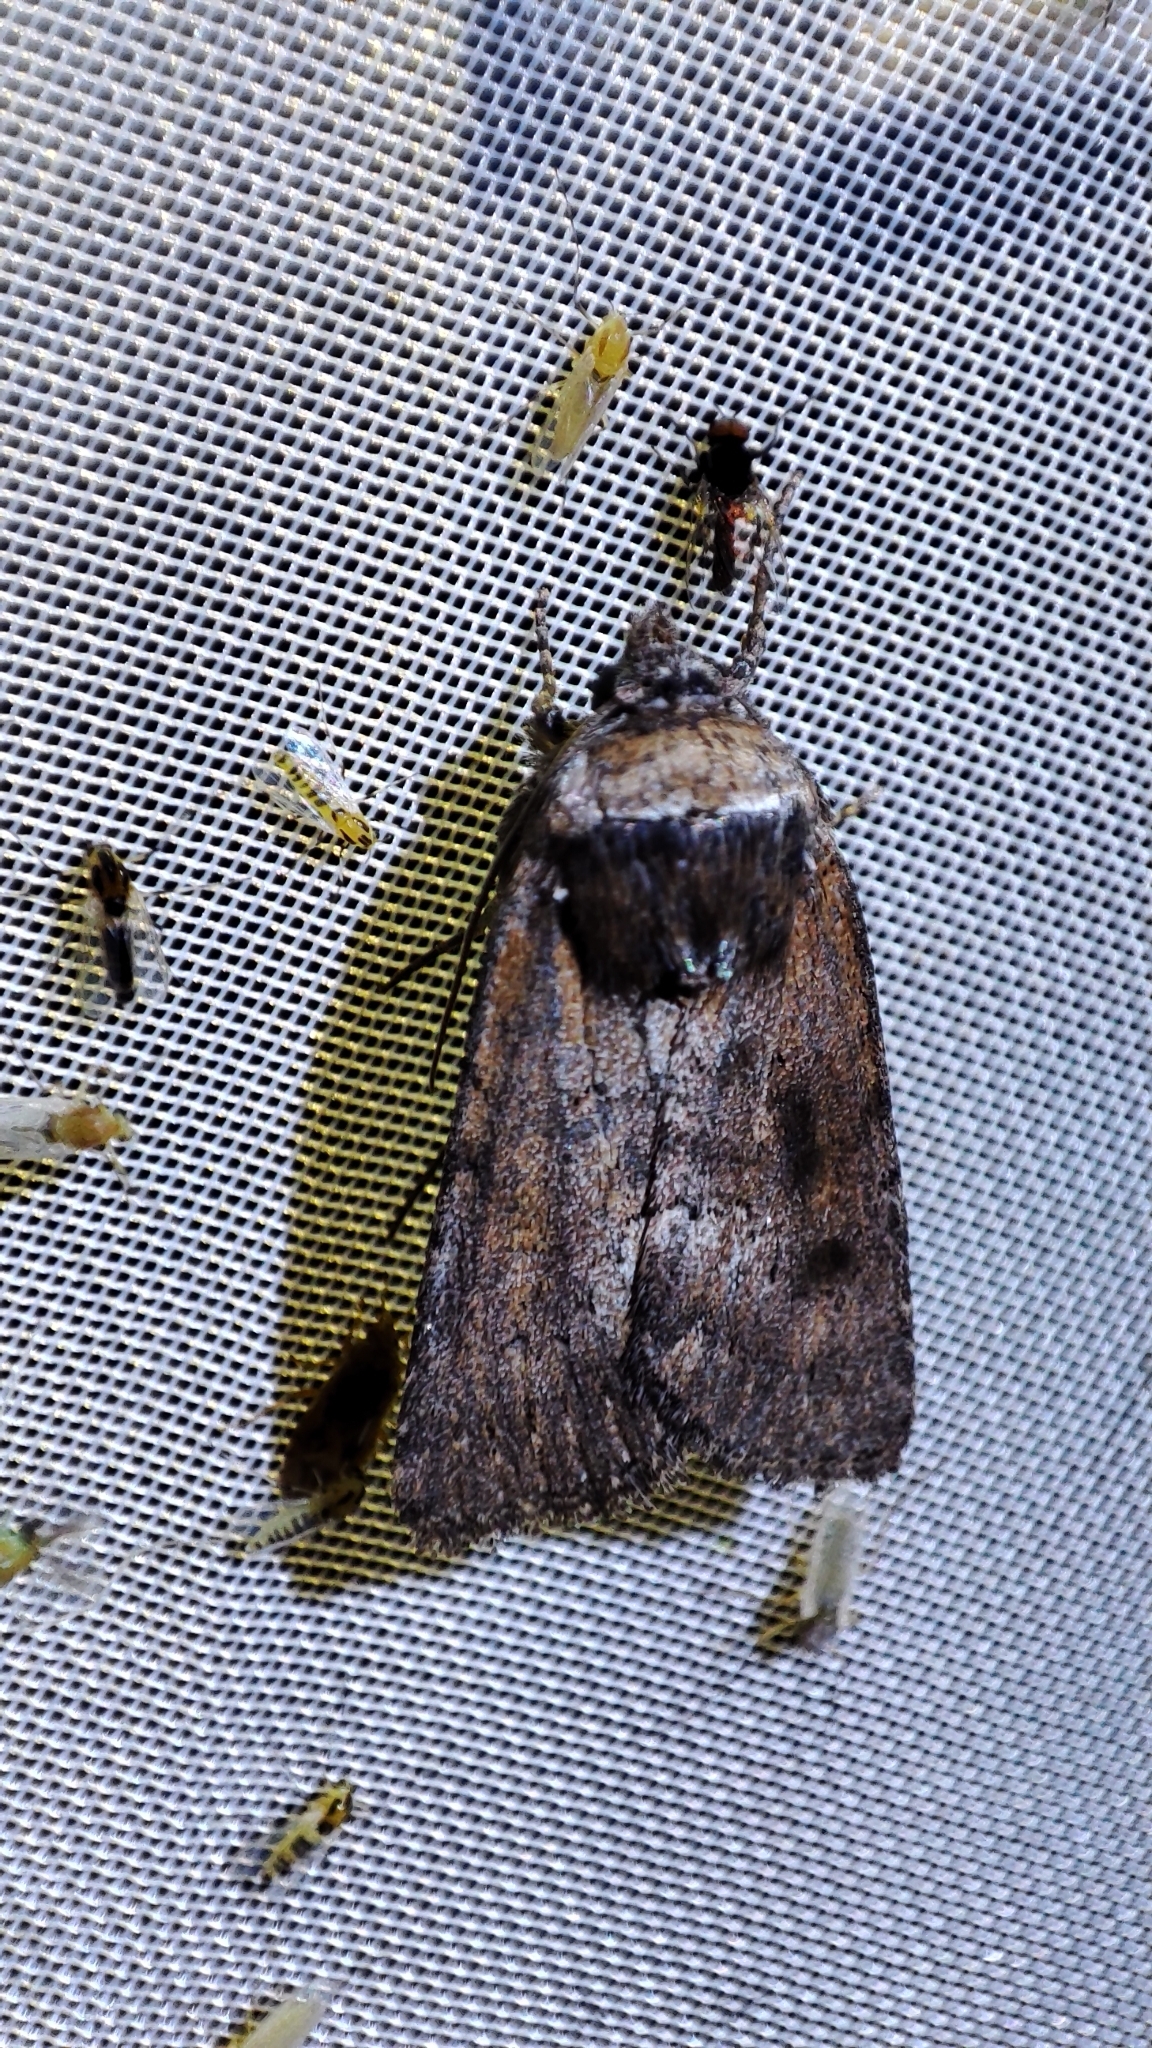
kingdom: Animalia
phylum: Arthropoda
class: Insecta
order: Lepidoptera
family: Noctuidae
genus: Sympistis
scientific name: Sympistis heliophila
